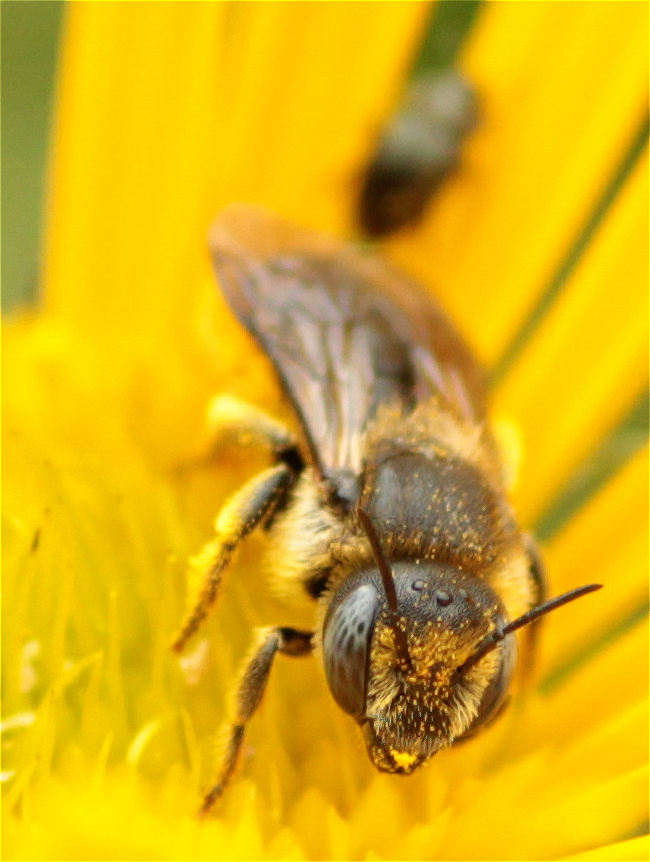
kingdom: Animalia
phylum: Arthropoda
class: Insecta
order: Hymenoptera
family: Megachilidae
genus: Osmia
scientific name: Osmia spinulosa
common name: Spined mason bee
